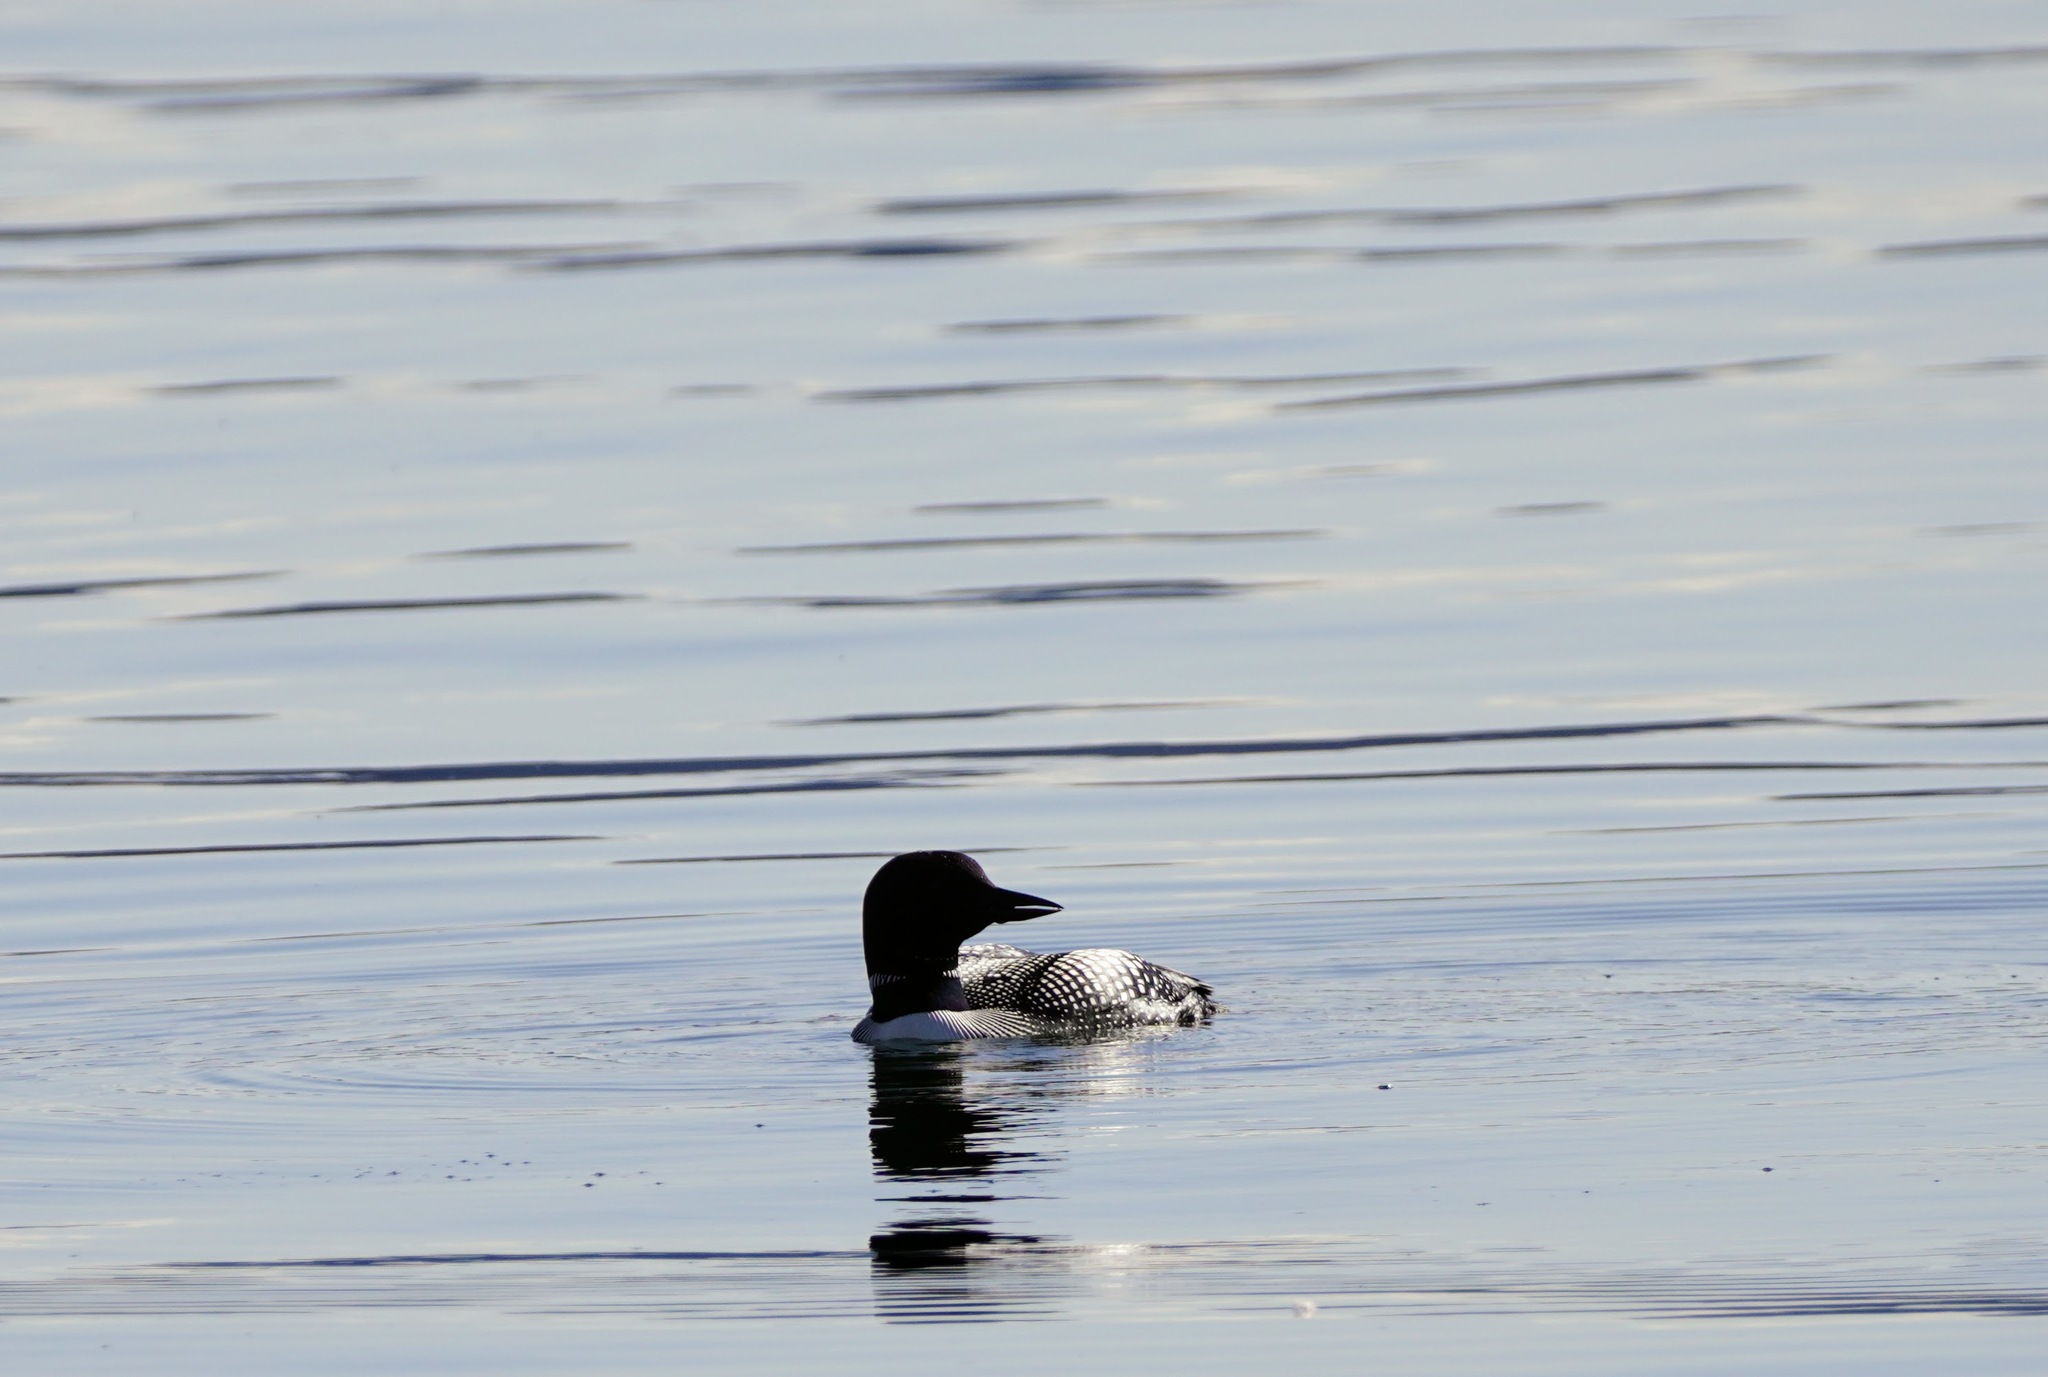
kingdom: Animalia
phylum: Chordata
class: Aves
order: Gaviiformes
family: Gaviidae
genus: Gavia
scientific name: Gavia immer
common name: Common loon
